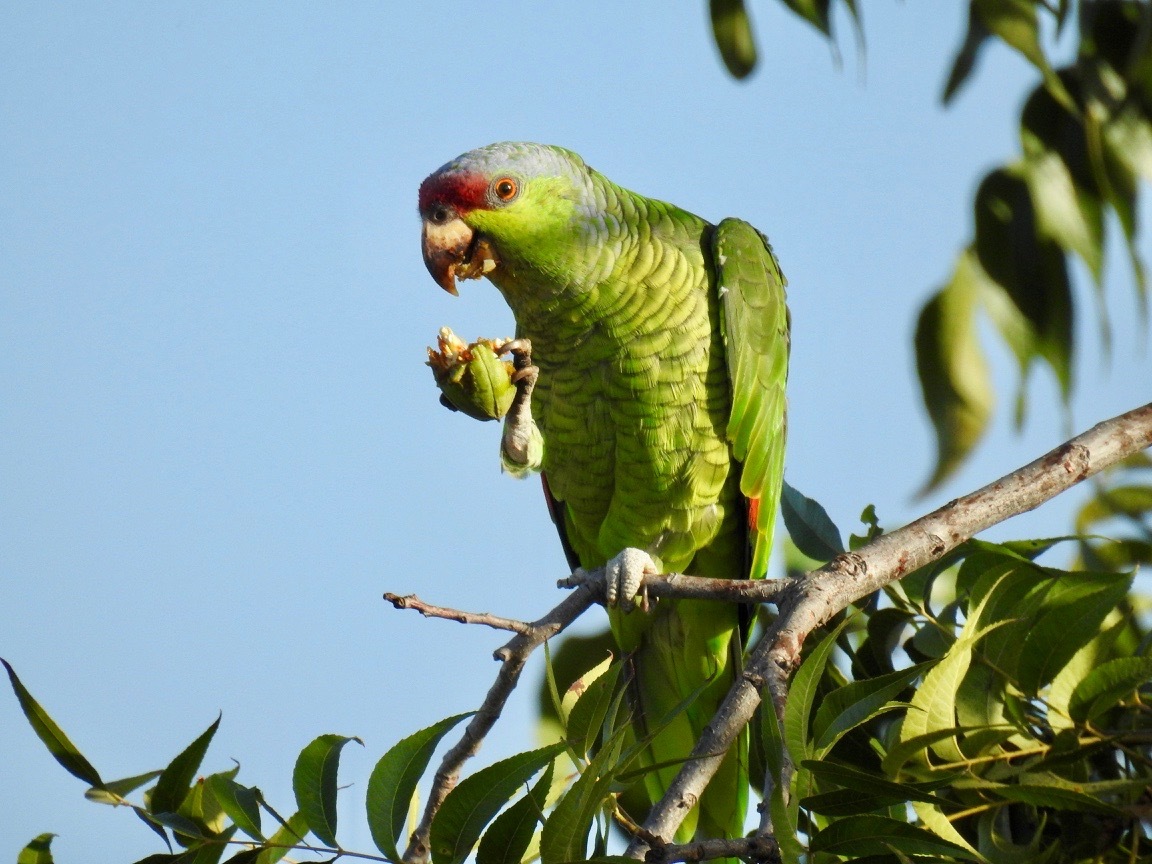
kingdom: Animalia
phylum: Chordata
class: Aves
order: Psittaciformes
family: Psittacidae
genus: Amazona
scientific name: Amazona finschi
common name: Lilac-crowned amazon
